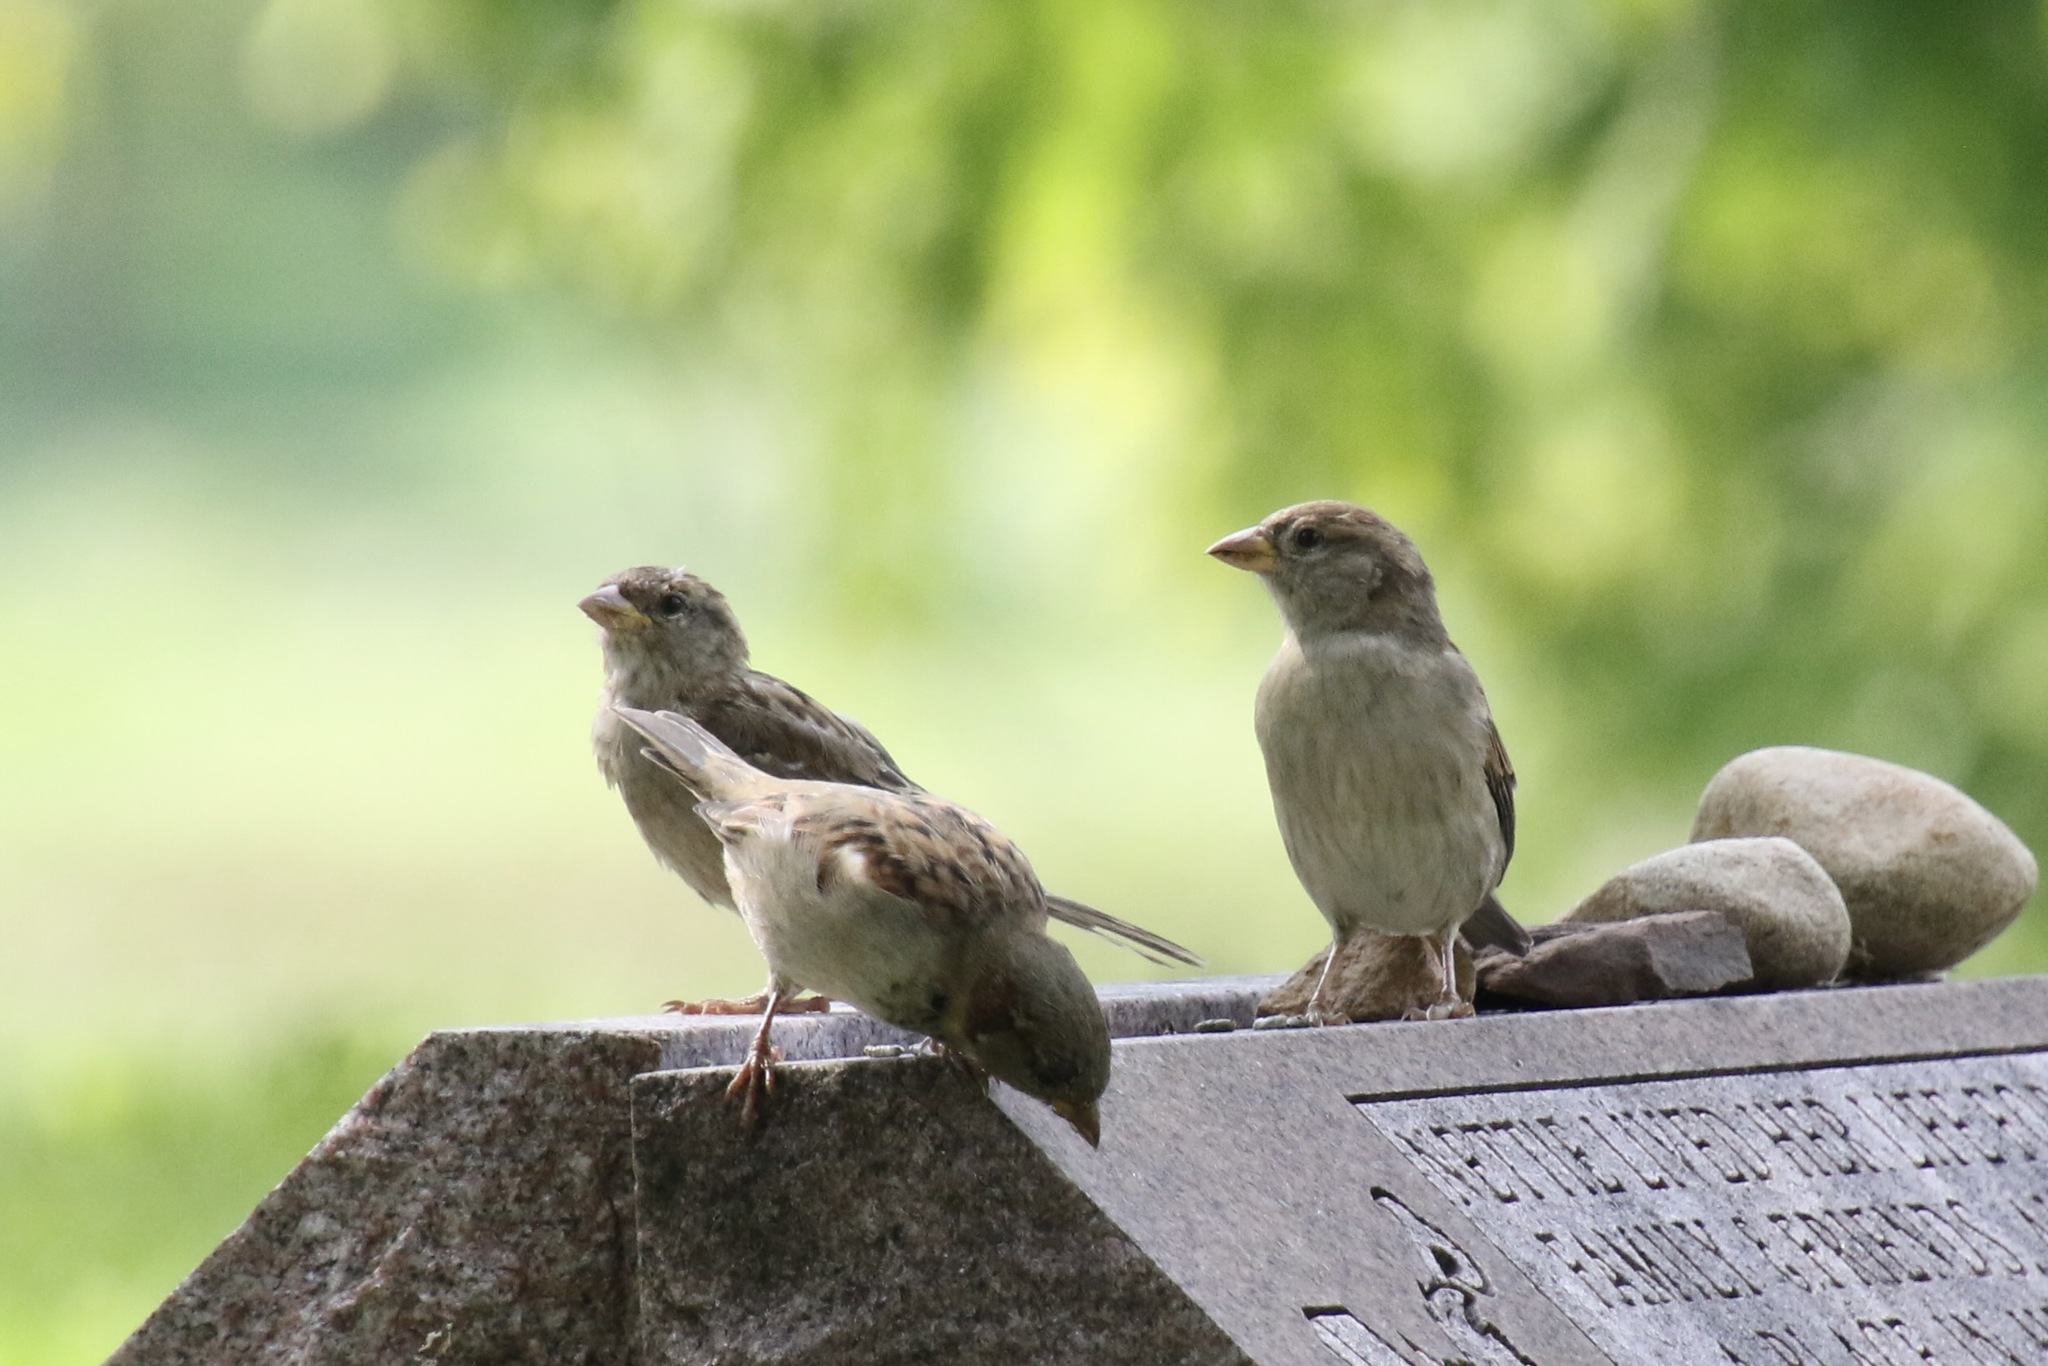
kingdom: Animalia
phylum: Chordata
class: Aves
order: Passeriformes
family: Passeridae
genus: Passer
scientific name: Passer domesticus
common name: House sparrow
